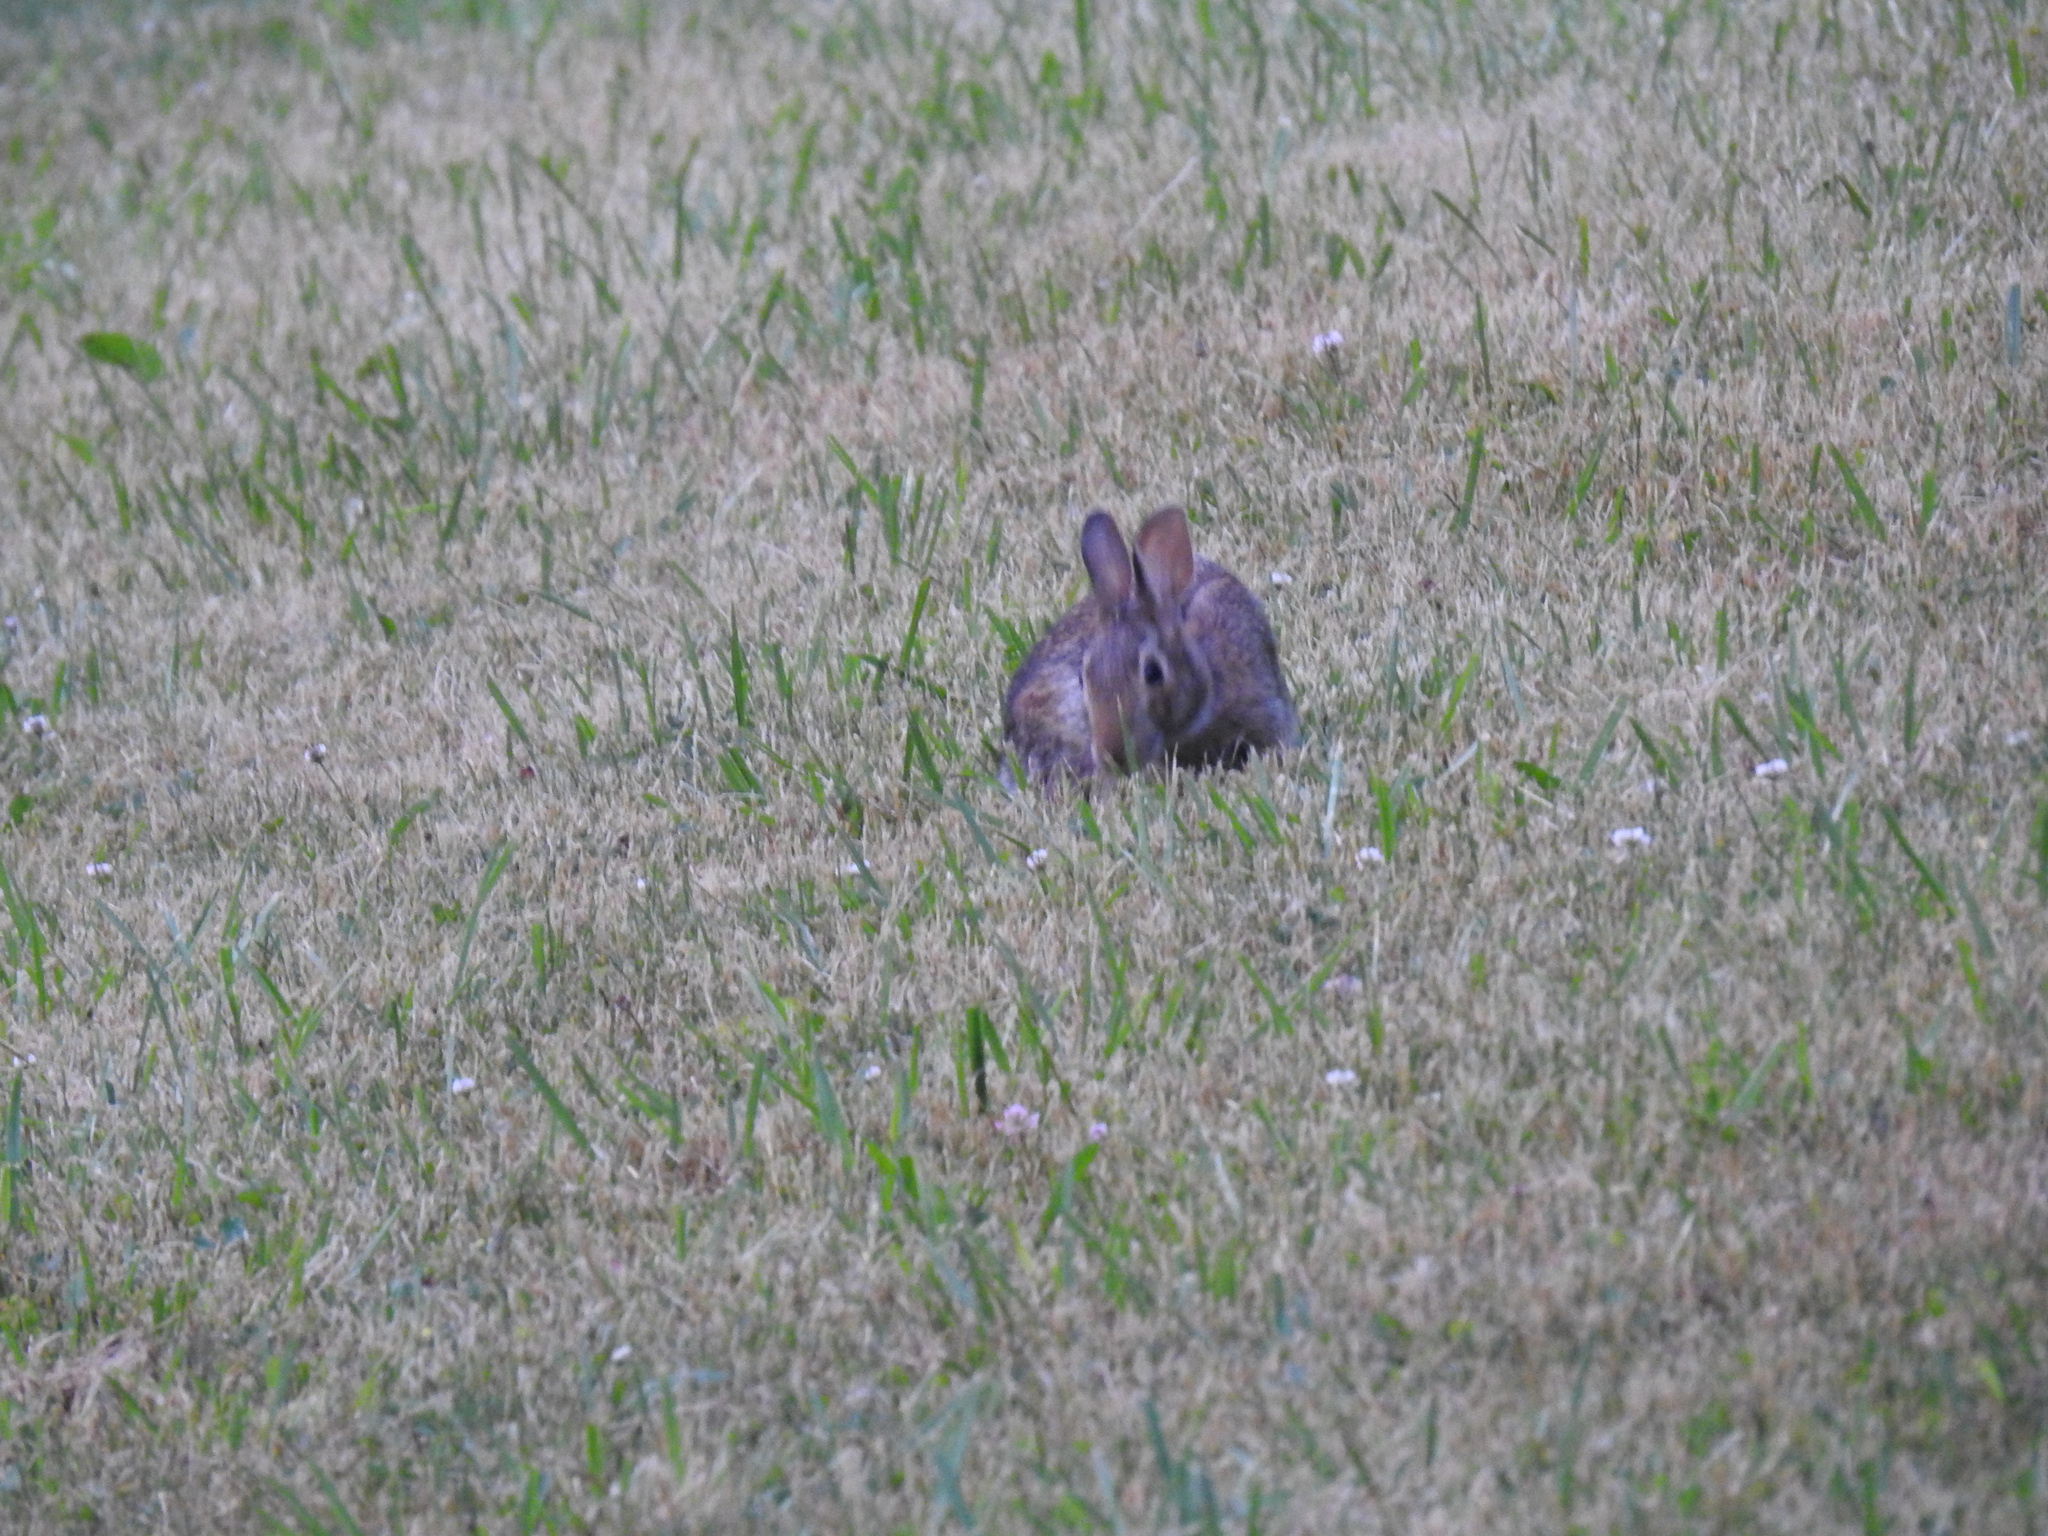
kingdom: Animalia
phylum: Chordata
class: Mammalia
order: Lagomorpha
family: Leporidae
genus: Sylvilagus
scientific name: Sylvilagus floridanus
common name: Eastern cottontail
